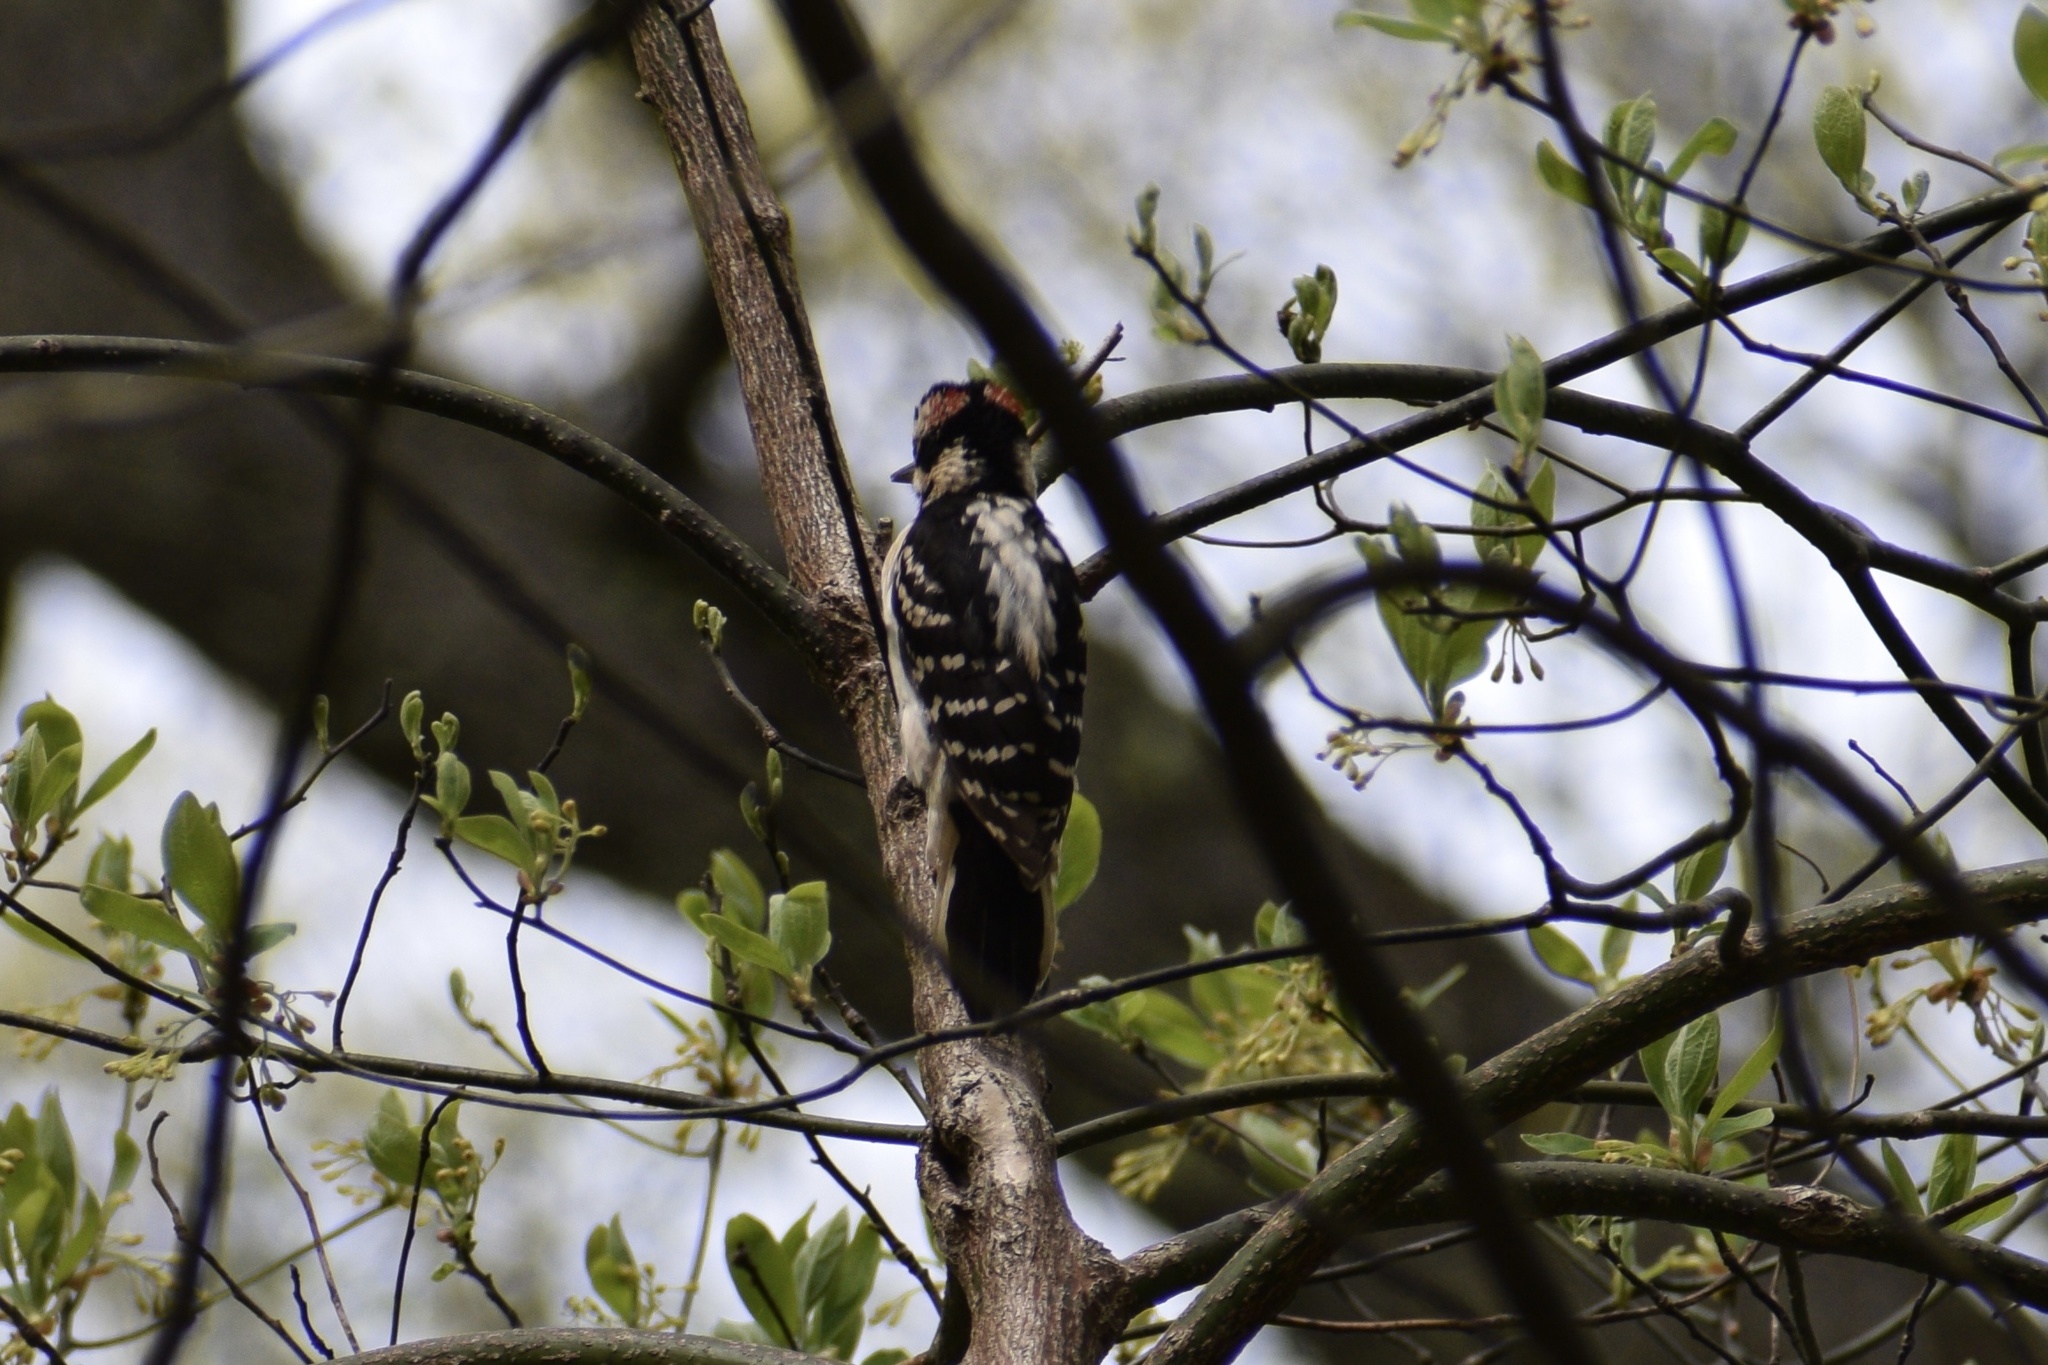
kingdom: Animalia
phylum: Chordata
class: Aves
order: Piciformes
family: Picidae
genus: Leuconotopicus
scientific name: Leuconotopicus villosus
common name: Hairy woodpecker
